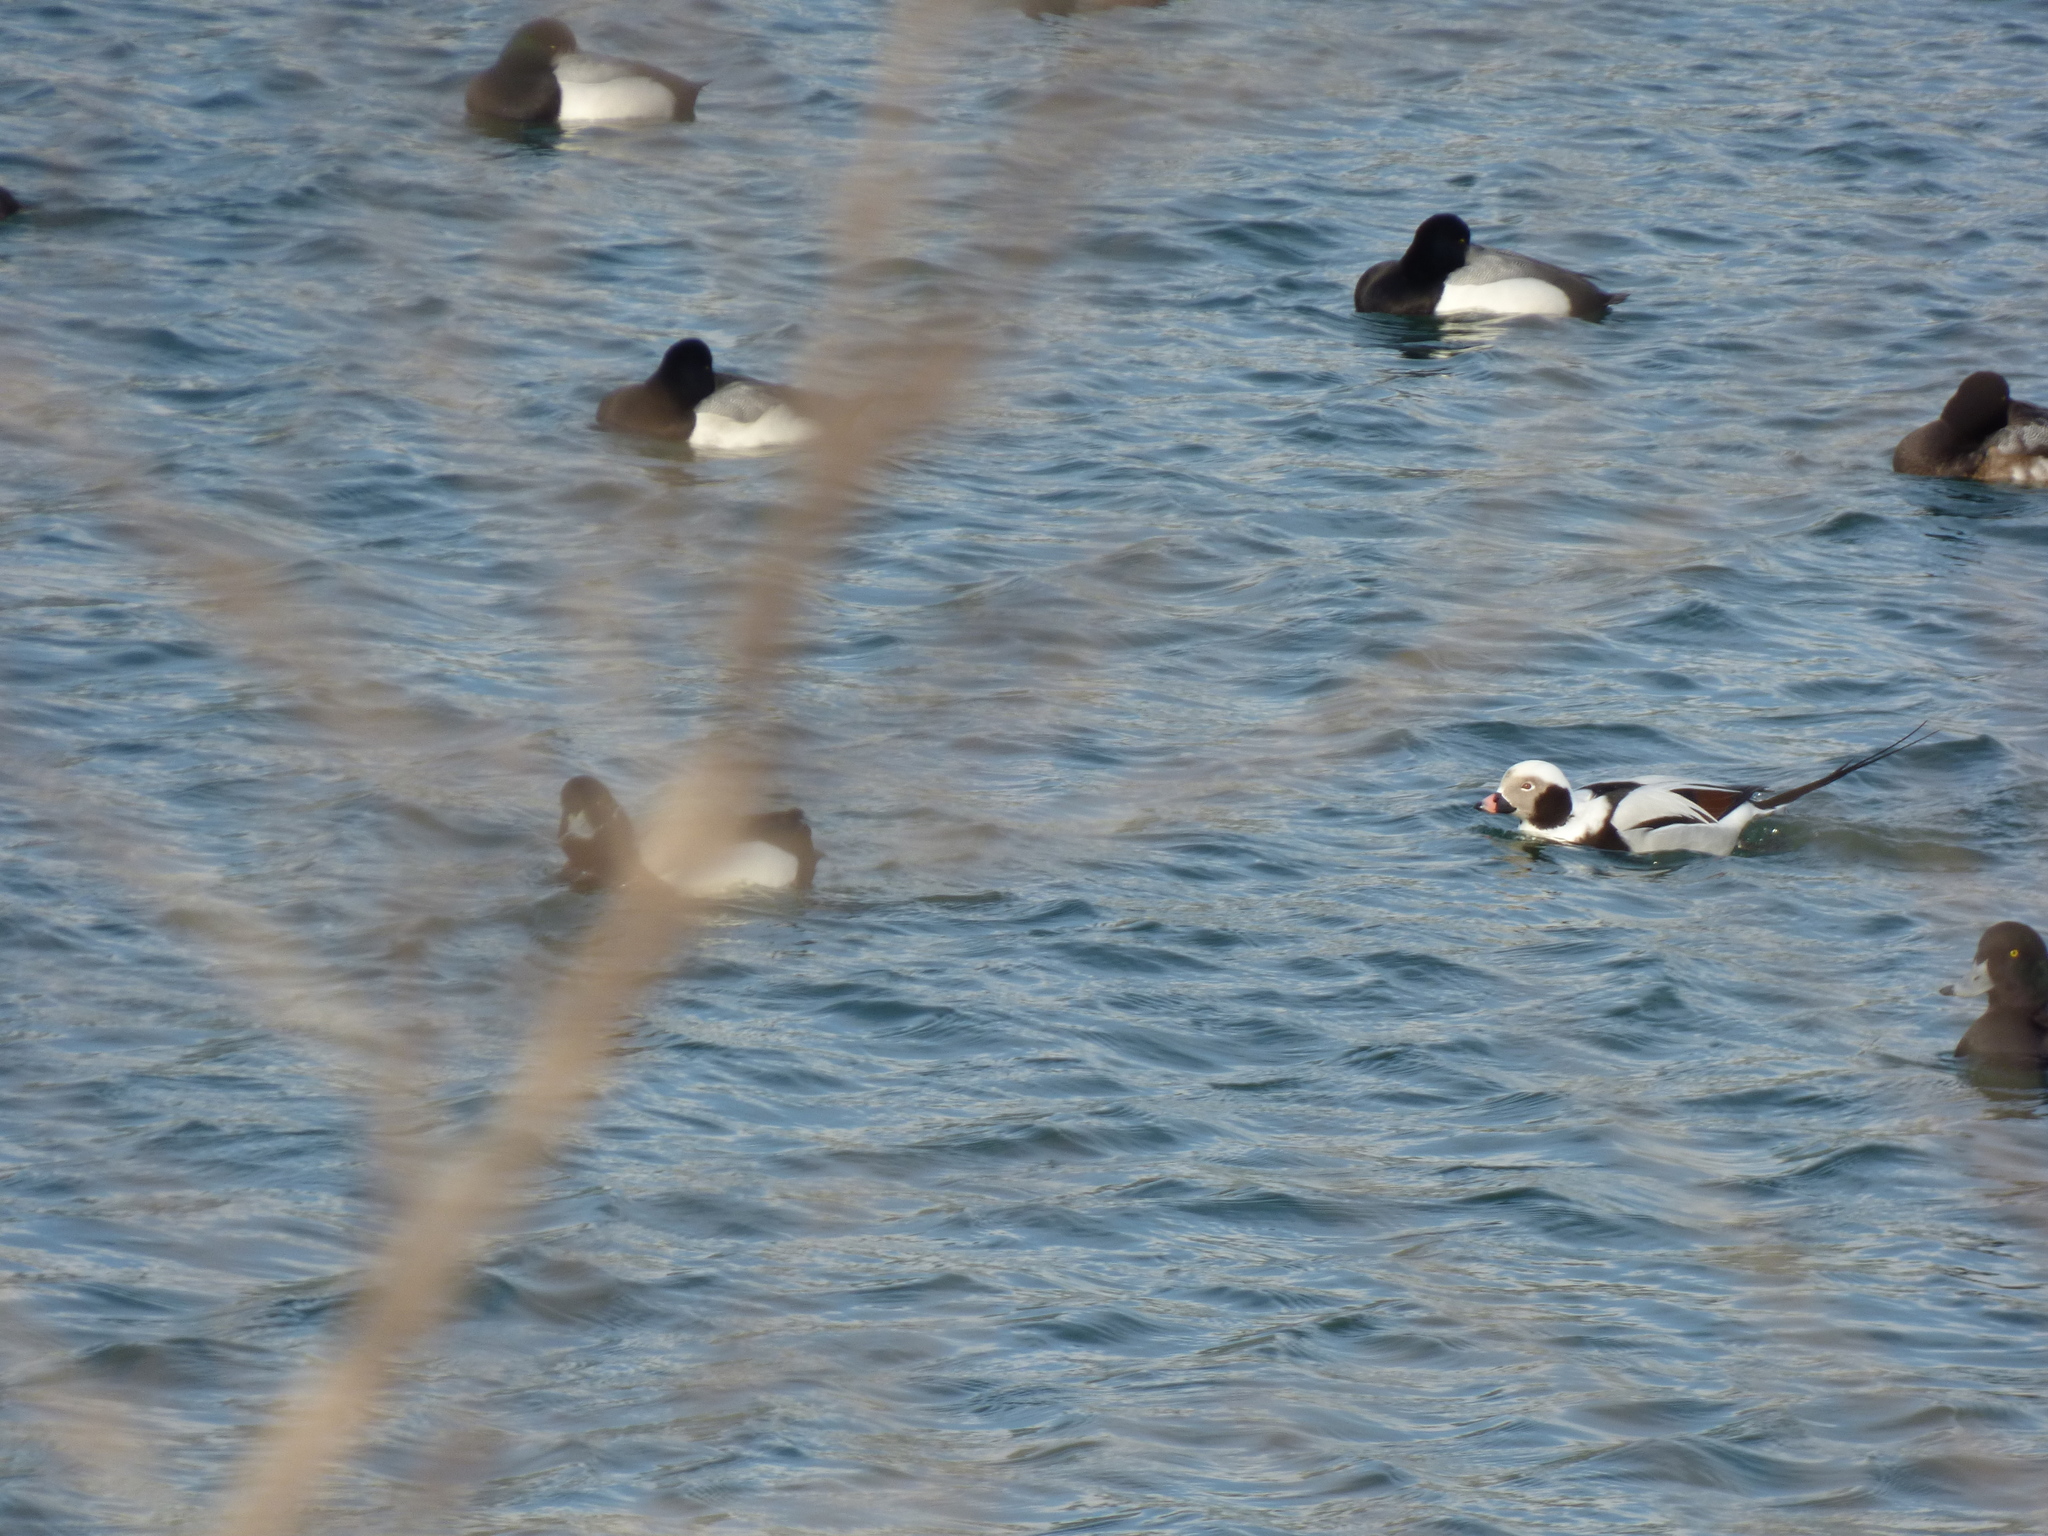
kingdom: Animalia
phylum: Chordata
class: Aves
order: Anseriformes
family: Anatidae
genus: Clangula
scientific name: Clangula hyemalis
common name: Long-tailed duck
